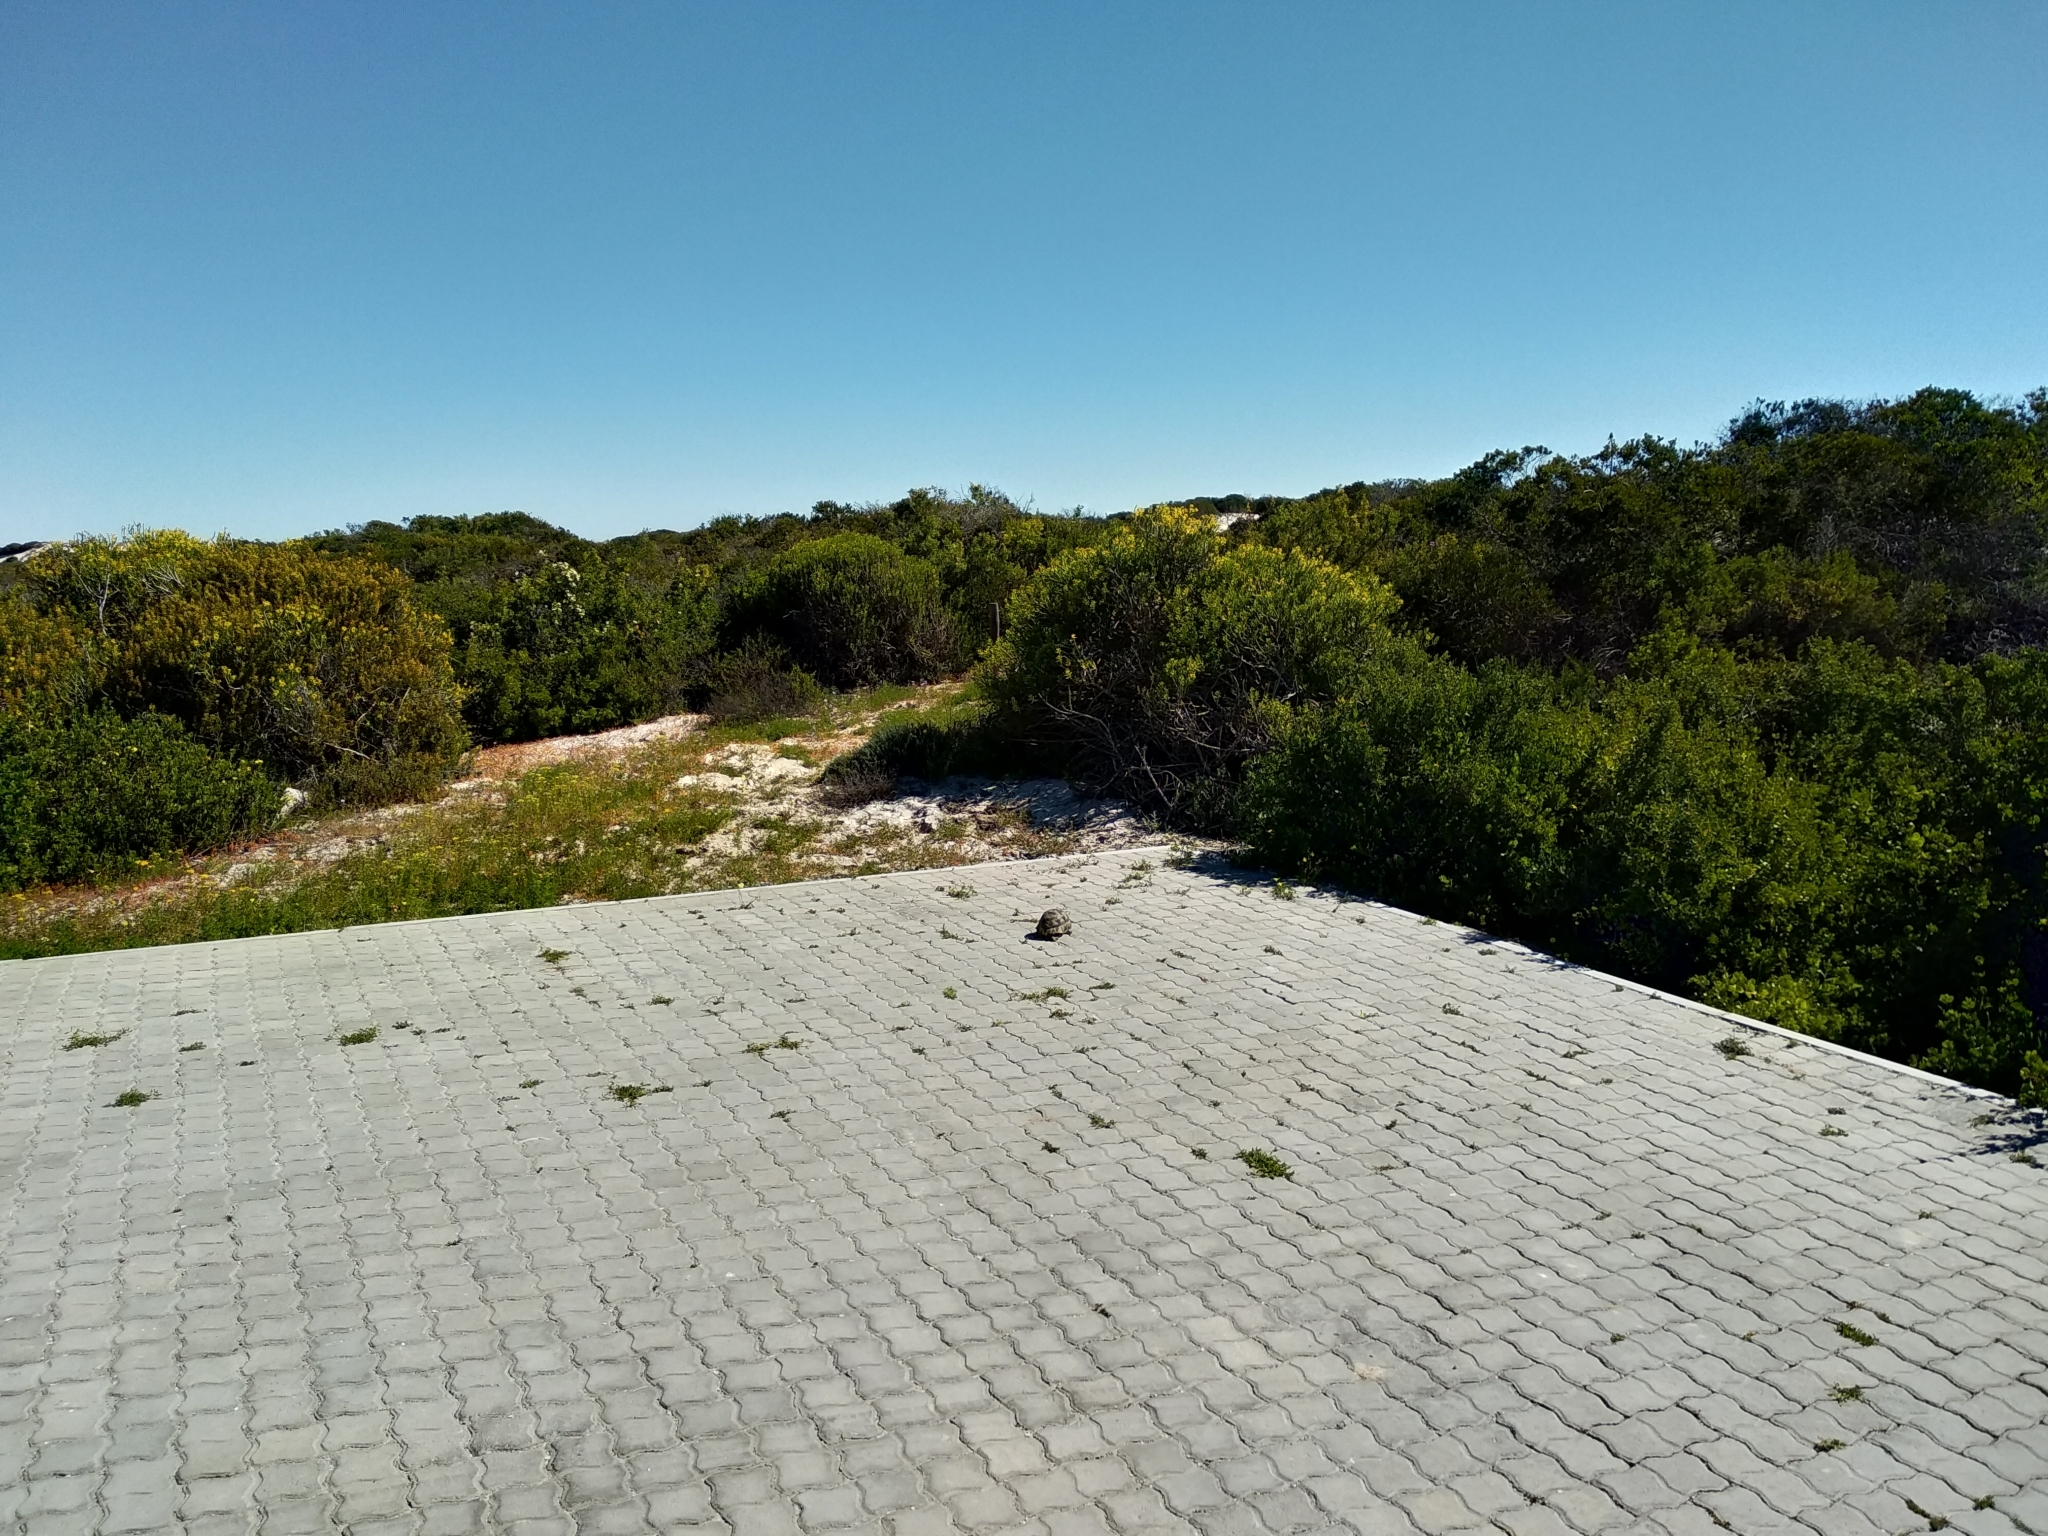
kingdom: Animalia
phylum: Chordata
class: Testudines
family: Testudinidae
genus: Chersina
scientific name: Chersina angulata
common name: South african bowsprit tortoise
